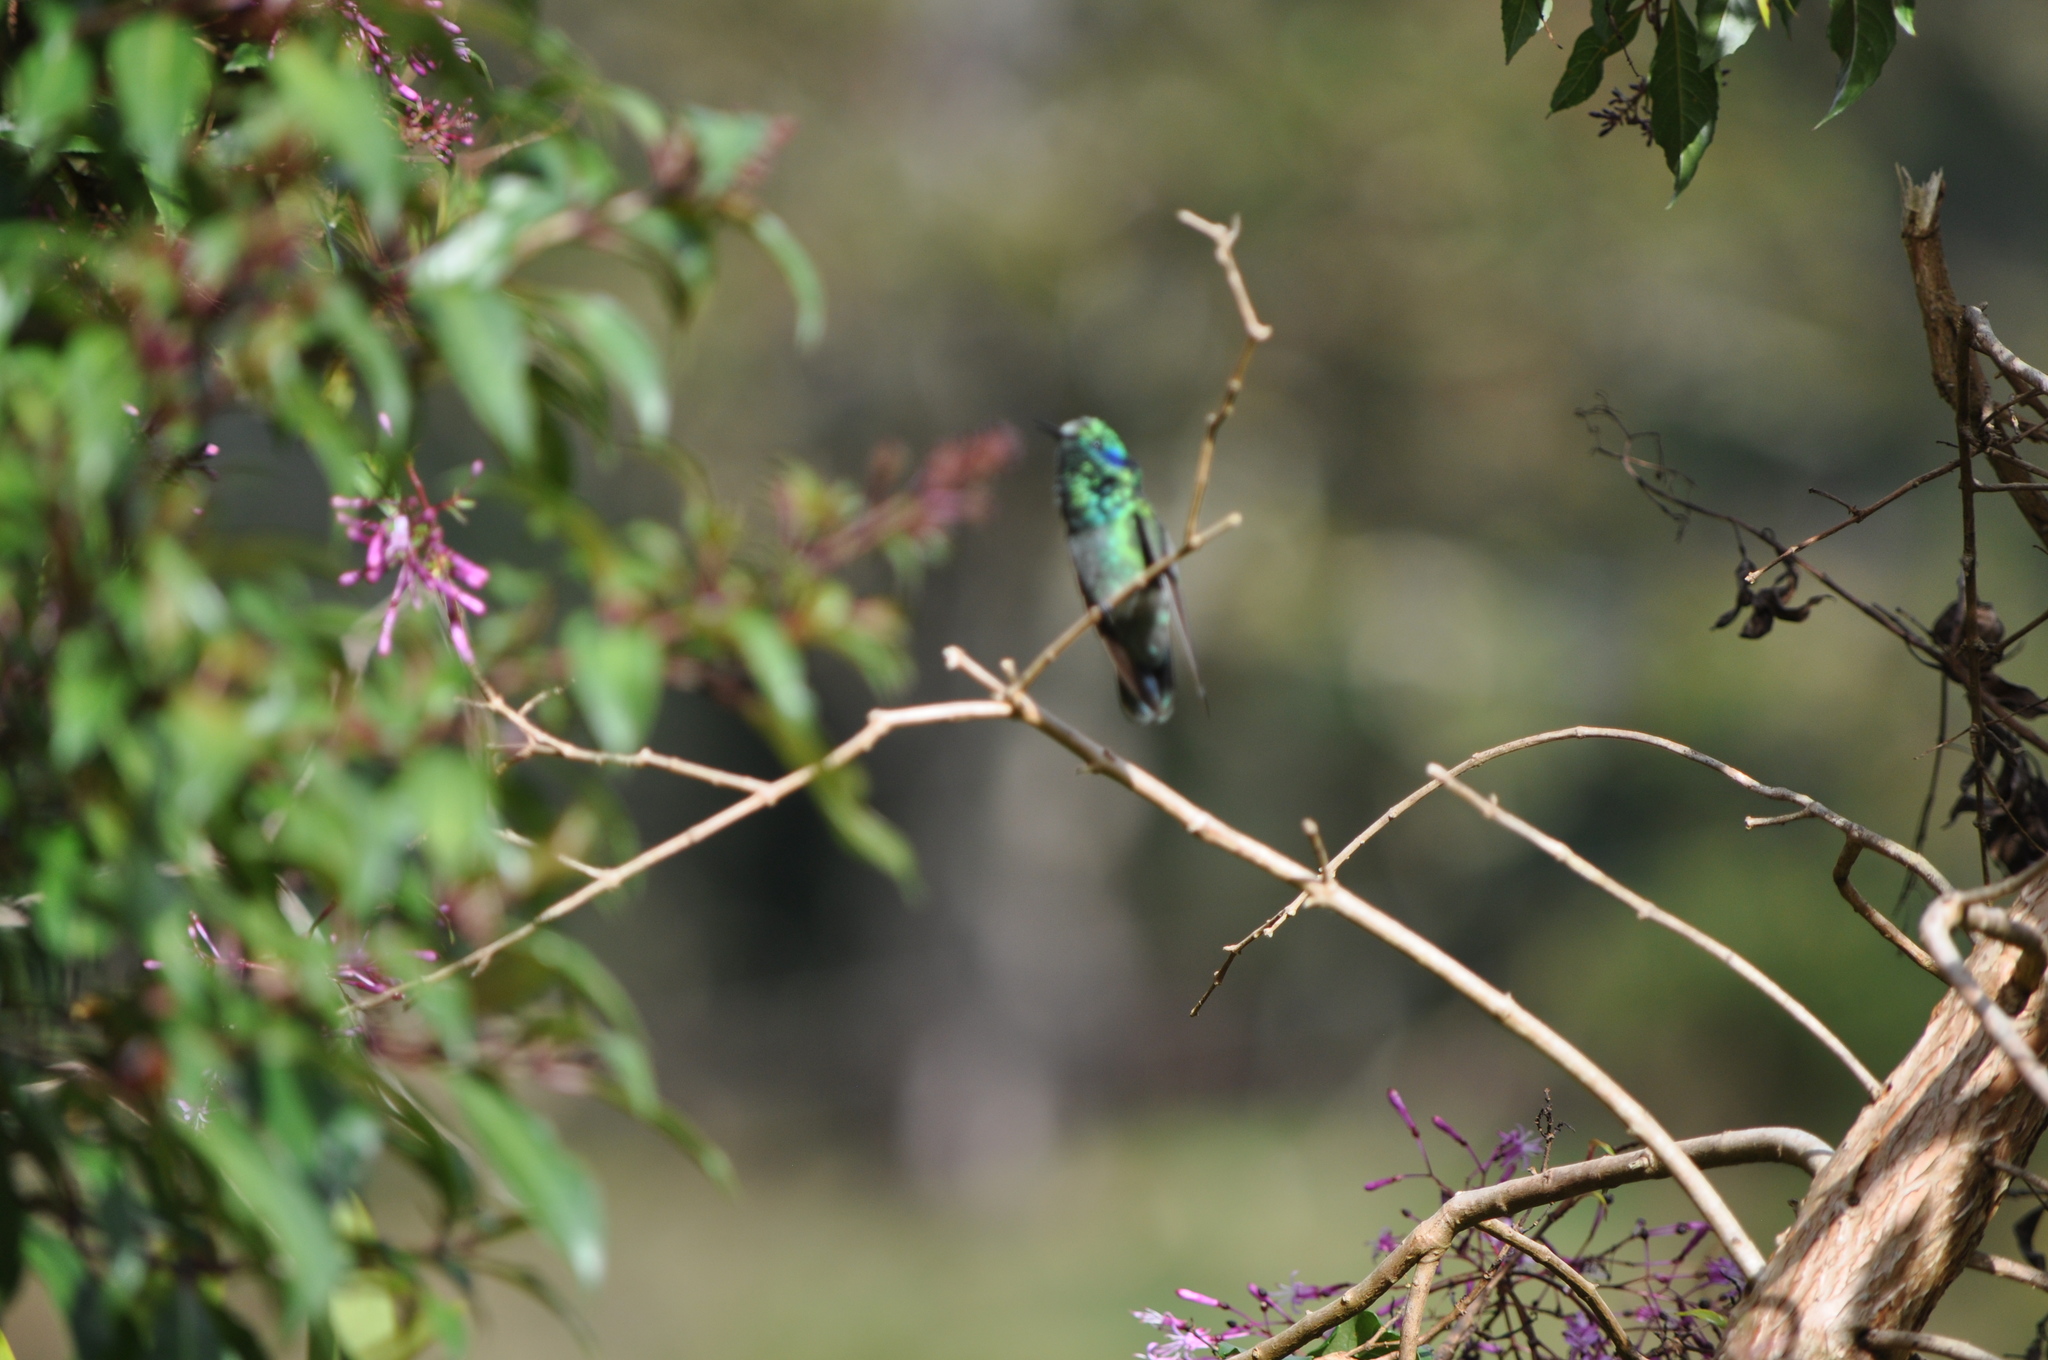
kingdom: Animalia
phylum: Chordata
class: Aves
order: Apodiformes
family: Trochilidae
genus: Colibri
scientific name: Colibri cyanotus
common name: Lesser violetear
